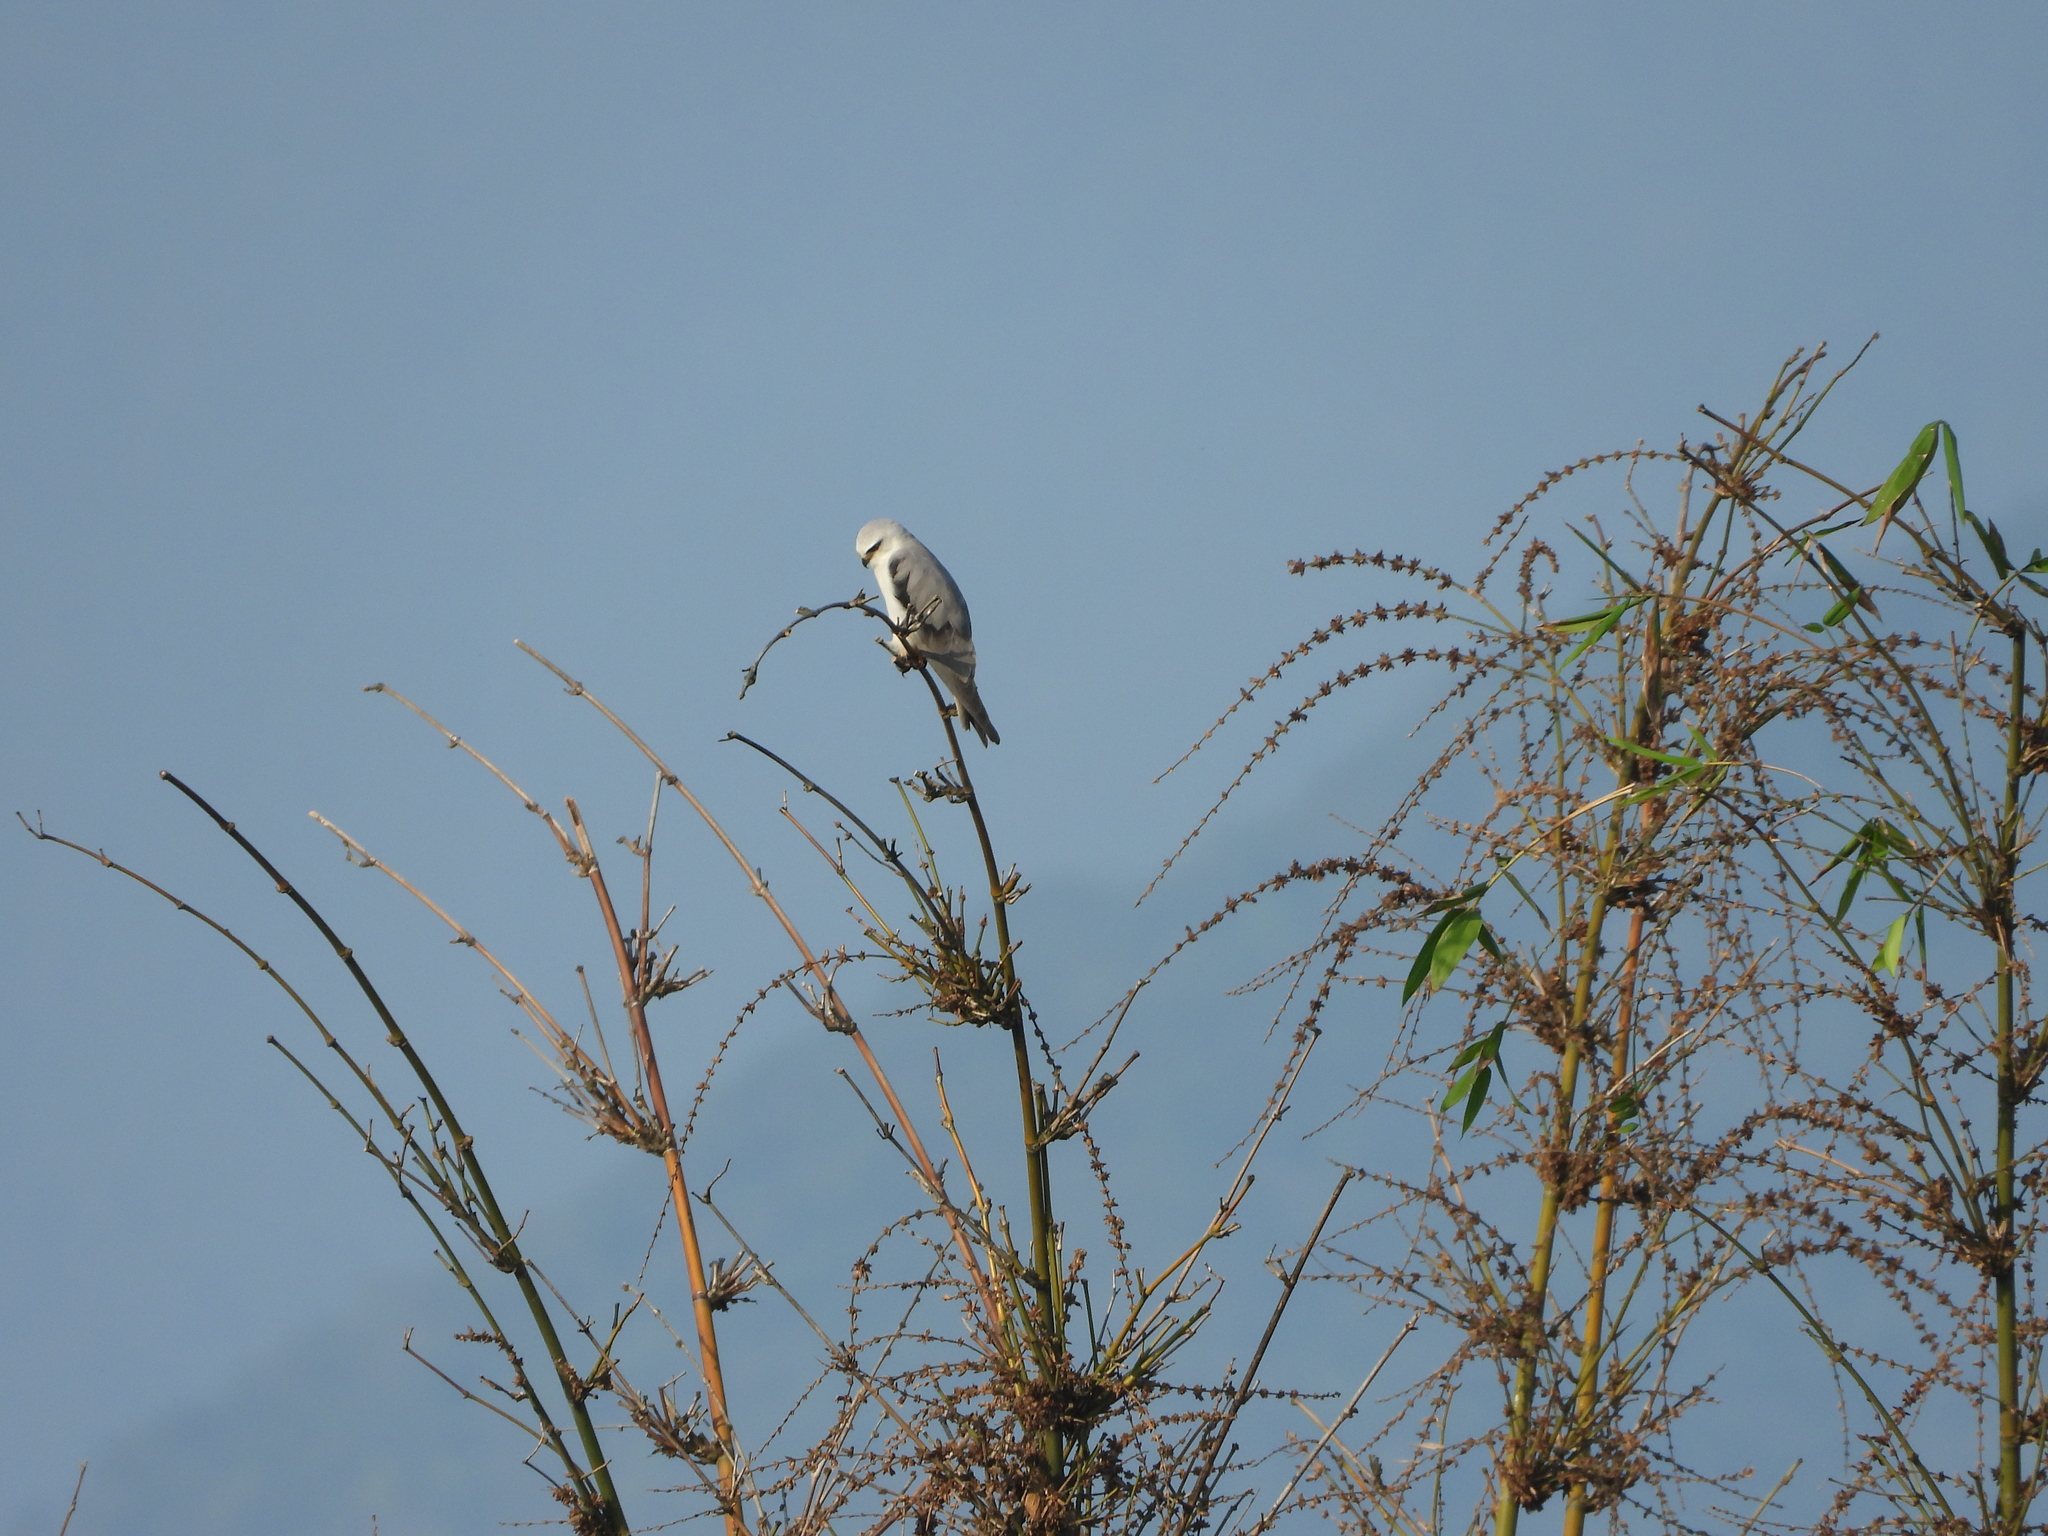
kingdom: Animalia
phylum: Chordata
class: Aves
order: Accipitriformes
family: Accipitridae
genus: Elanus
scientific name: Elanus caeruleus
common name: Black-winged kite
